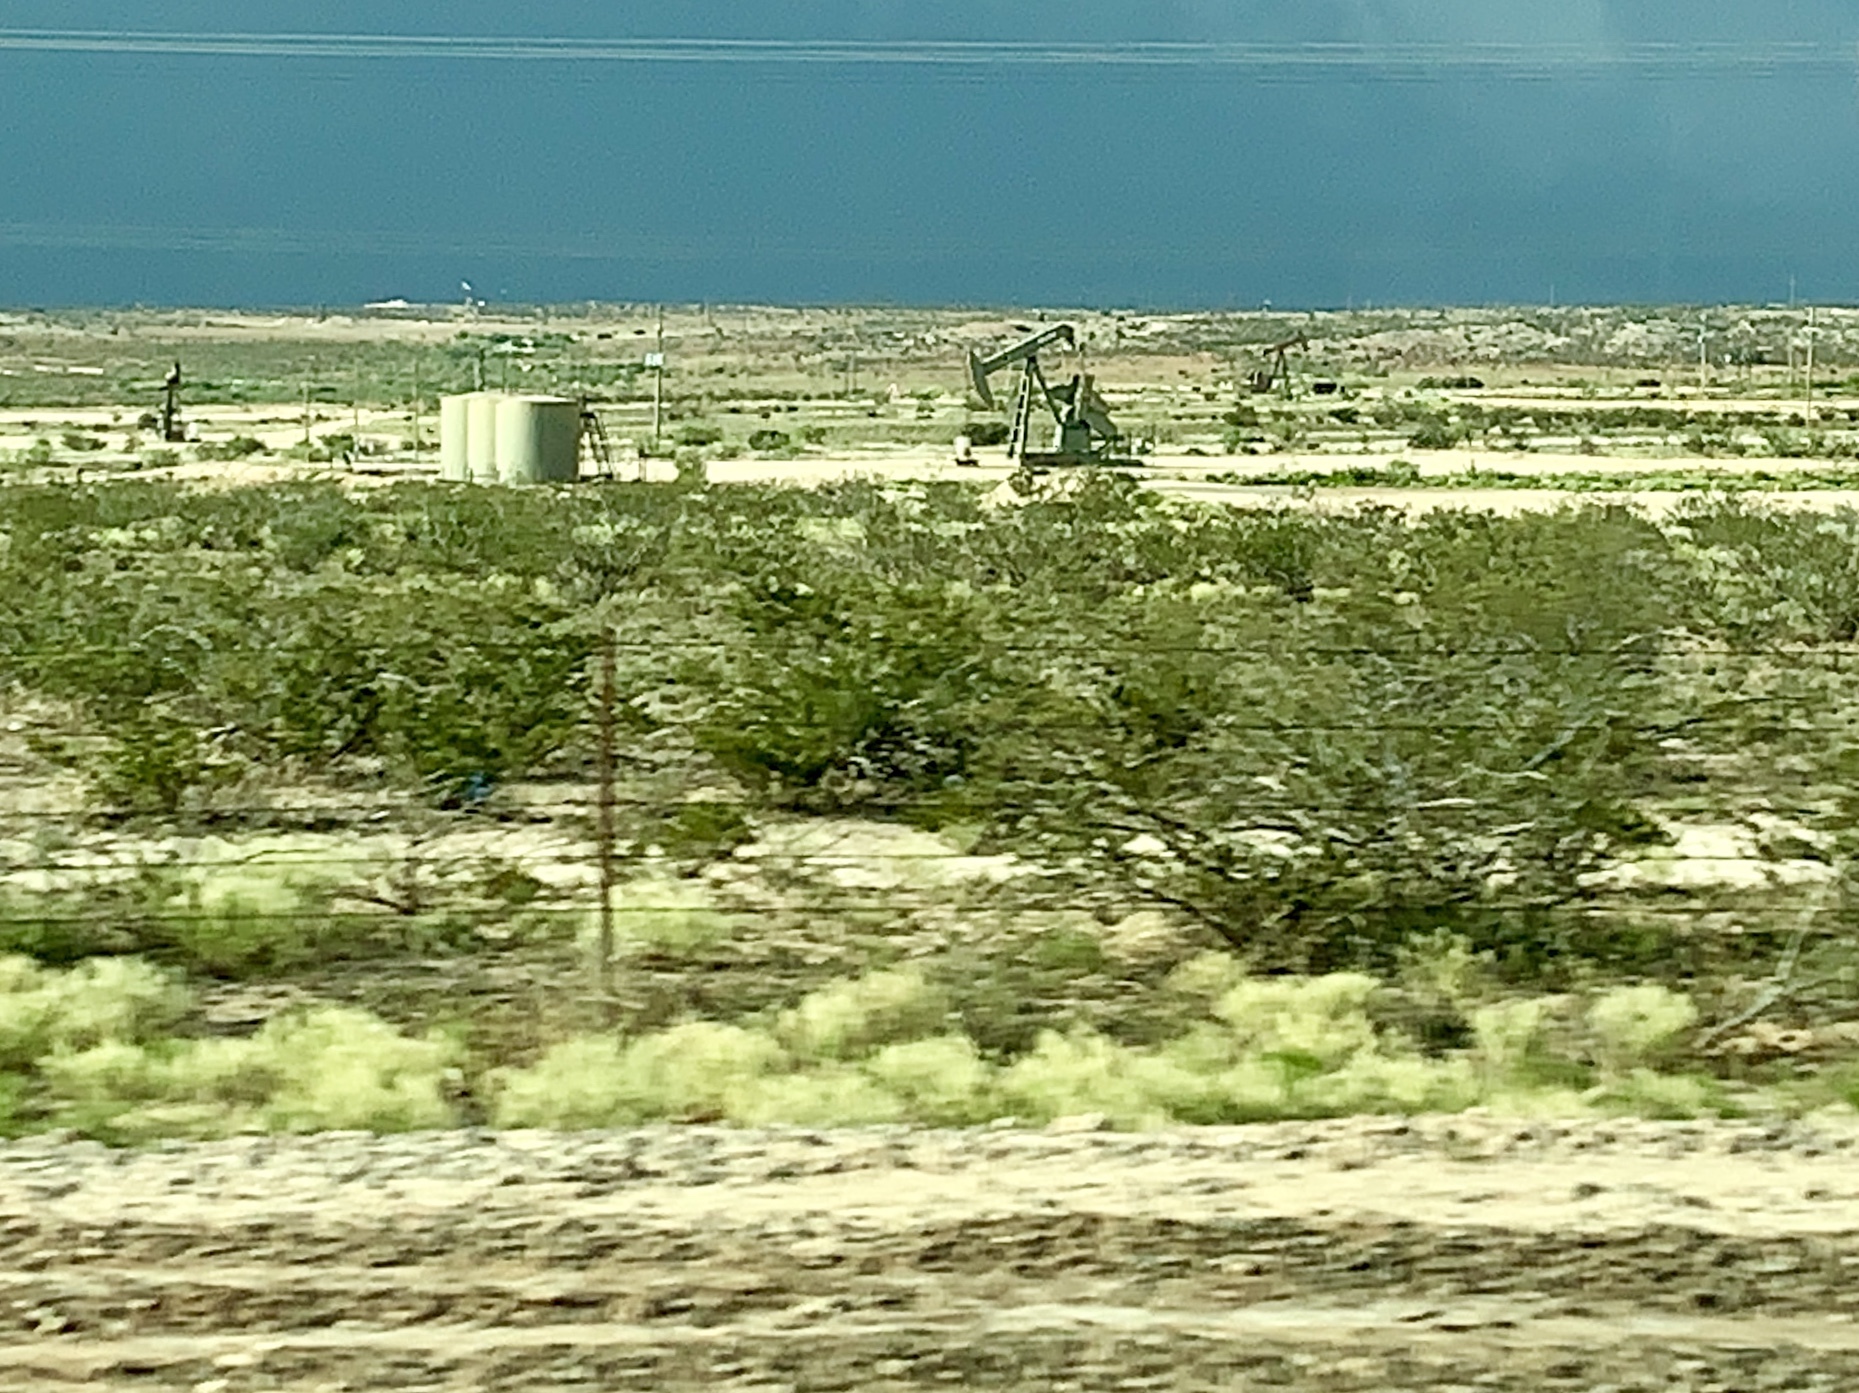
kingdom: Plantae
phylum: Tracheophyta
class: Magnoliopsida
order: Zygophyllales
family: Zygophyllaceae
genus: Larrea
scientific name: Larrea tridentata
